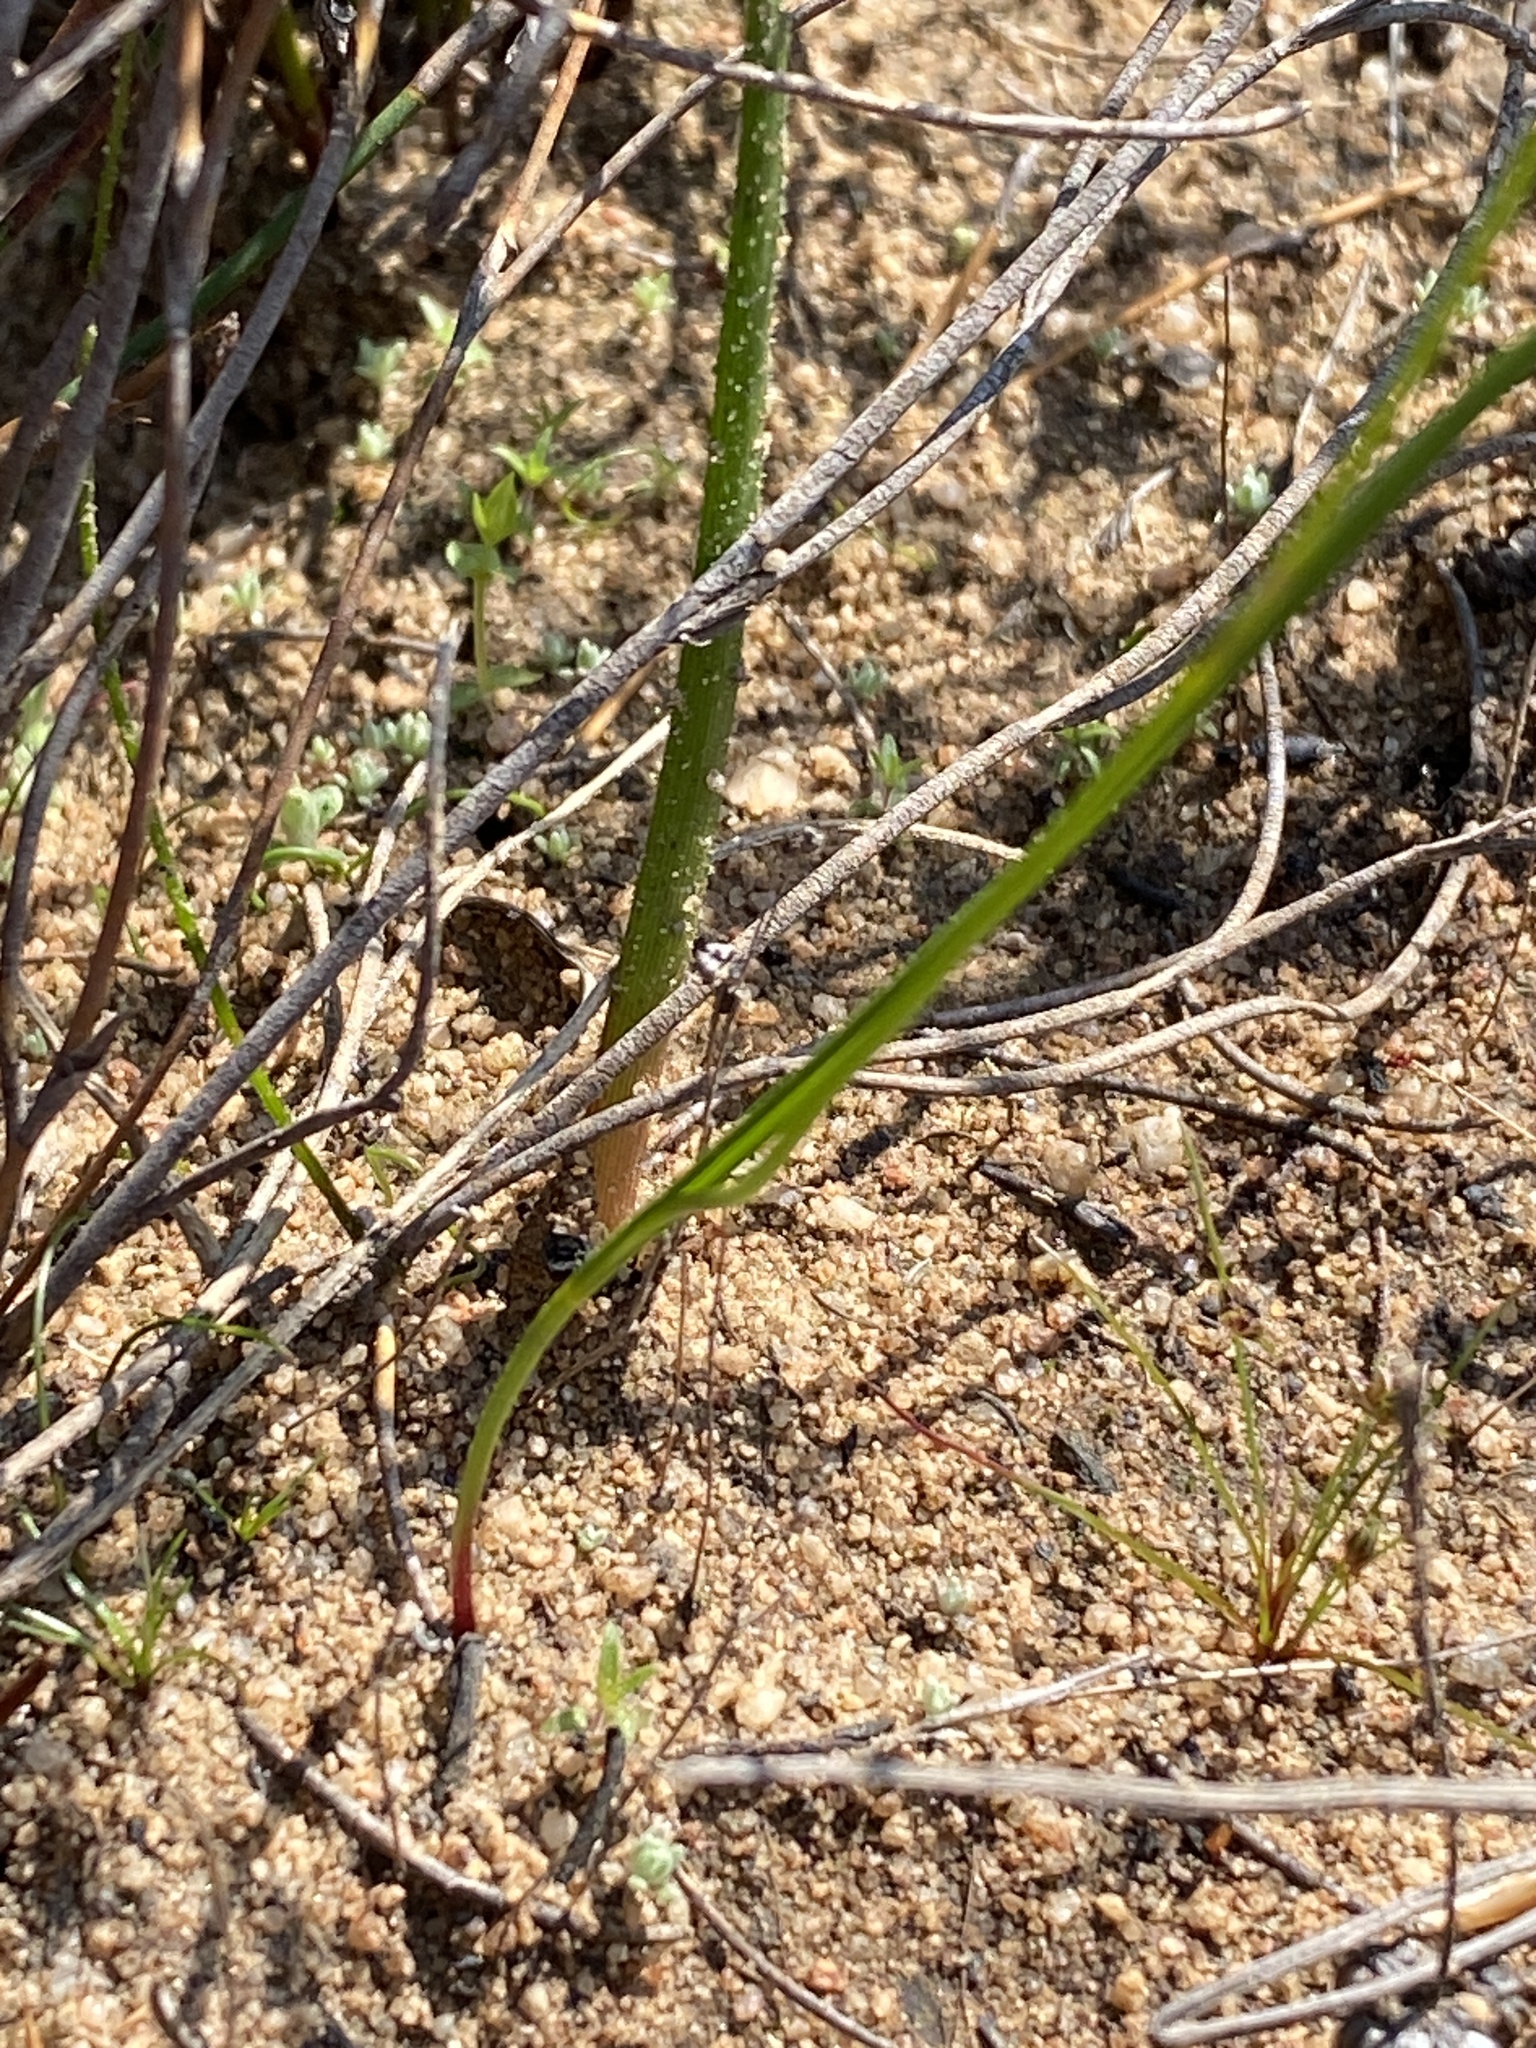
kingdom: Plantae
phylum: Tracheophyta
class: Liliopsida
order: Asparagales
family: Iridaceae
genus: Moraea
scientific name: Moraea gawleri
